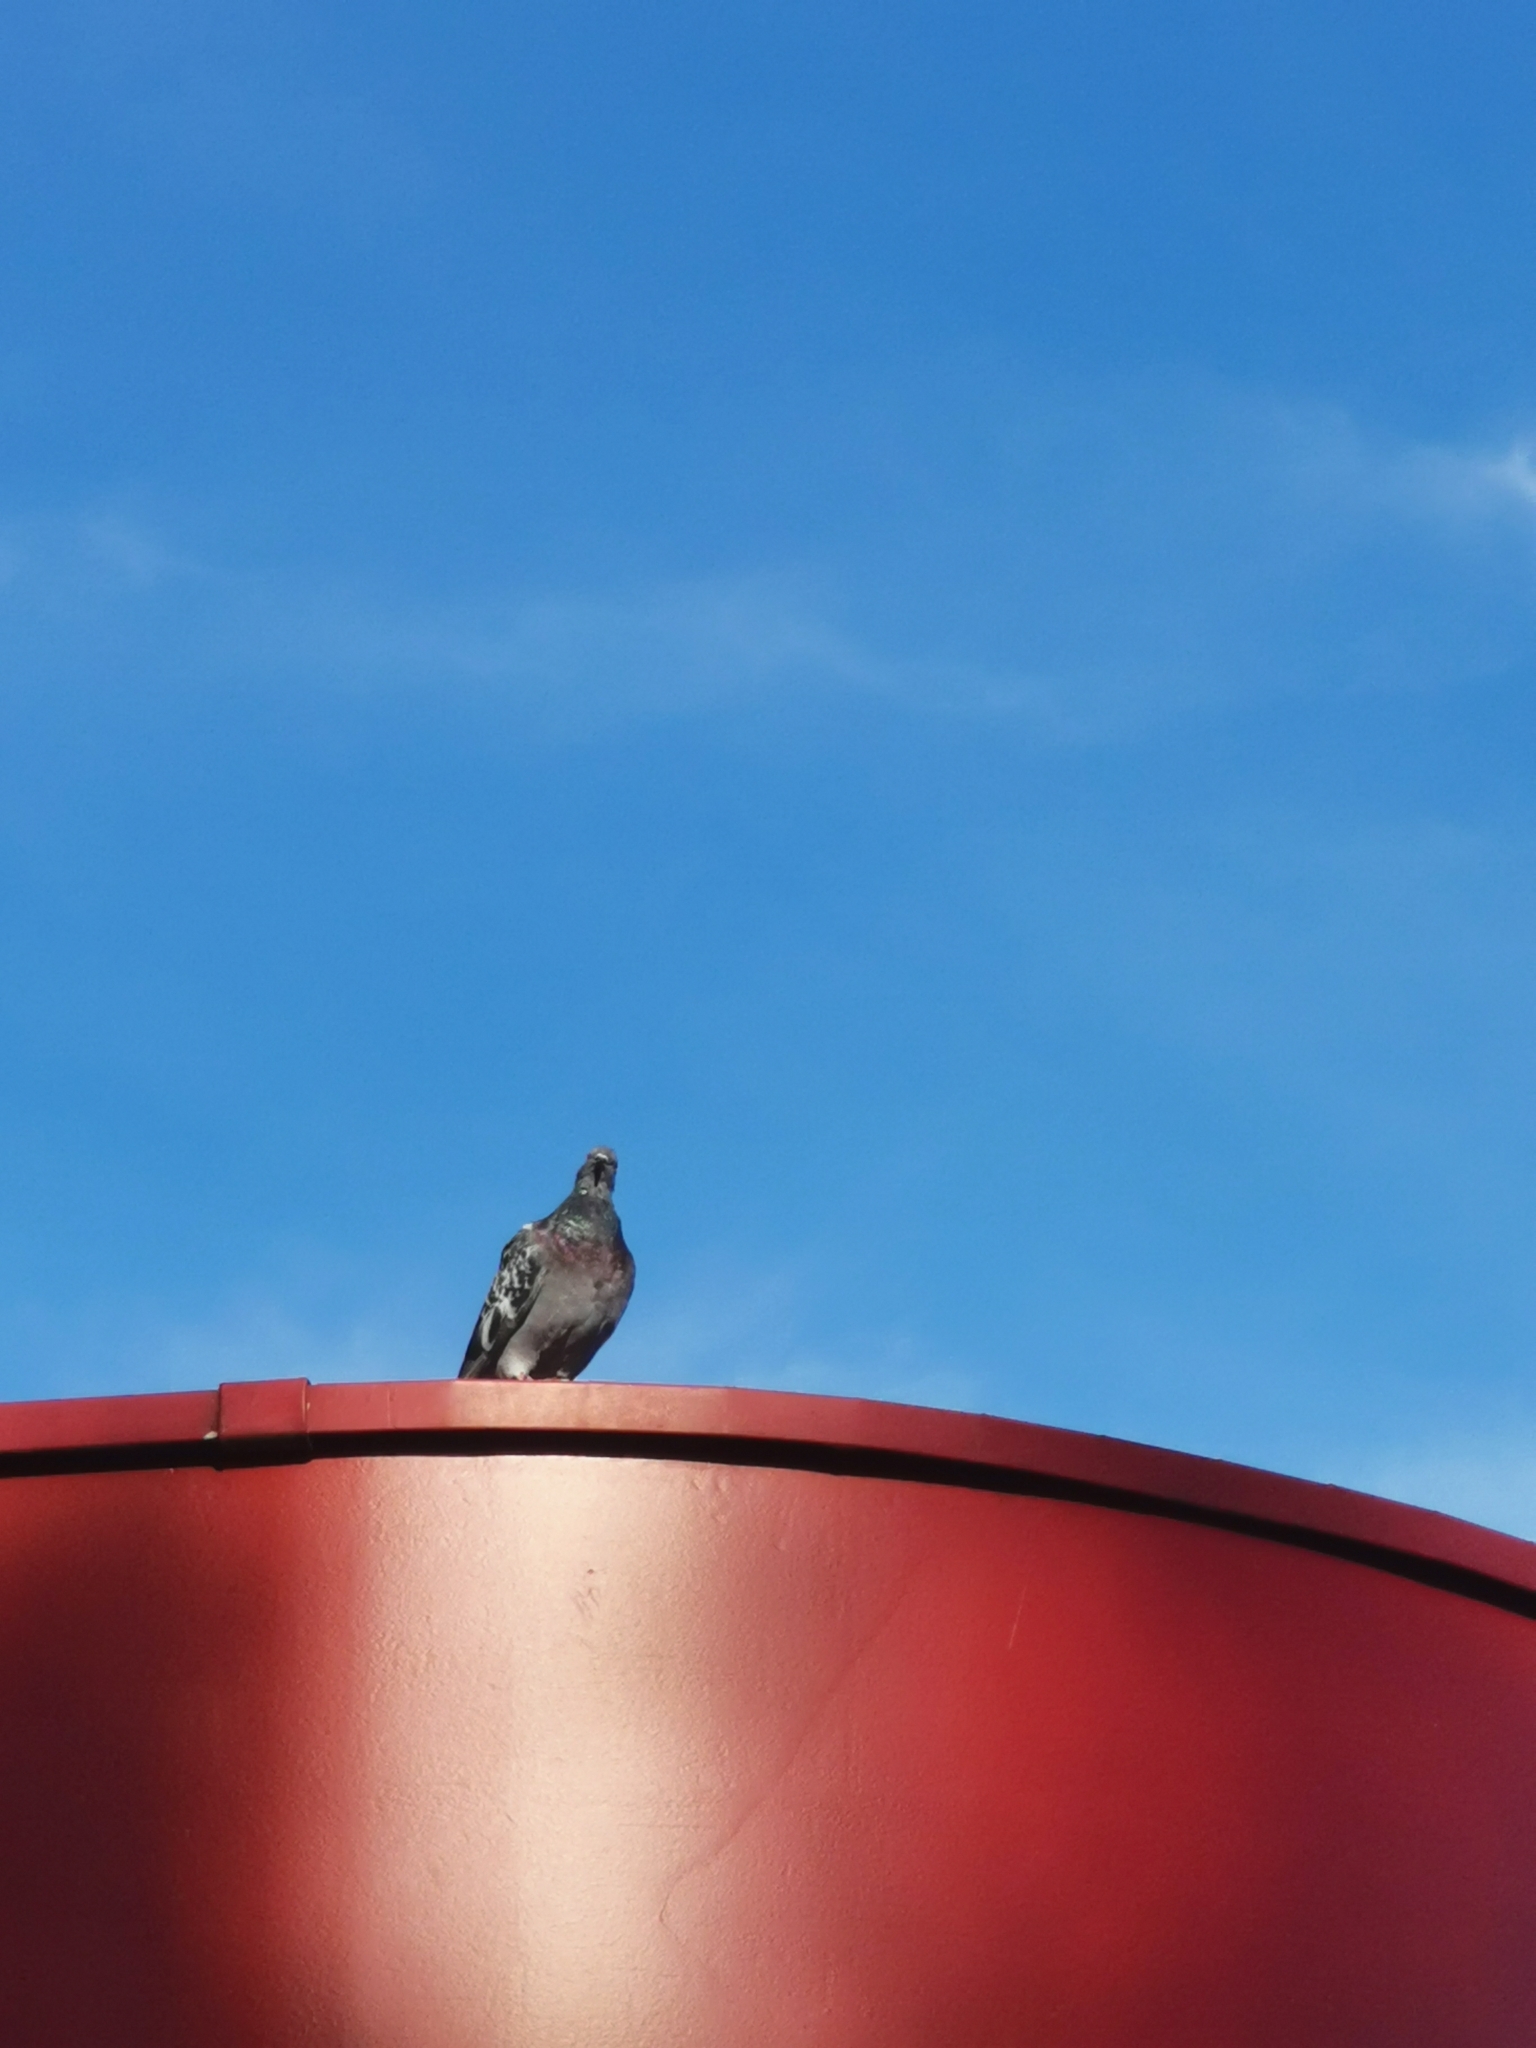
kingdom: Animalia
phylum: Chordata
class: Aves
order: Columbiformes
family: Columbidae
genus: Columba
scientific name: Columba livia
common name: Rock pigeon
